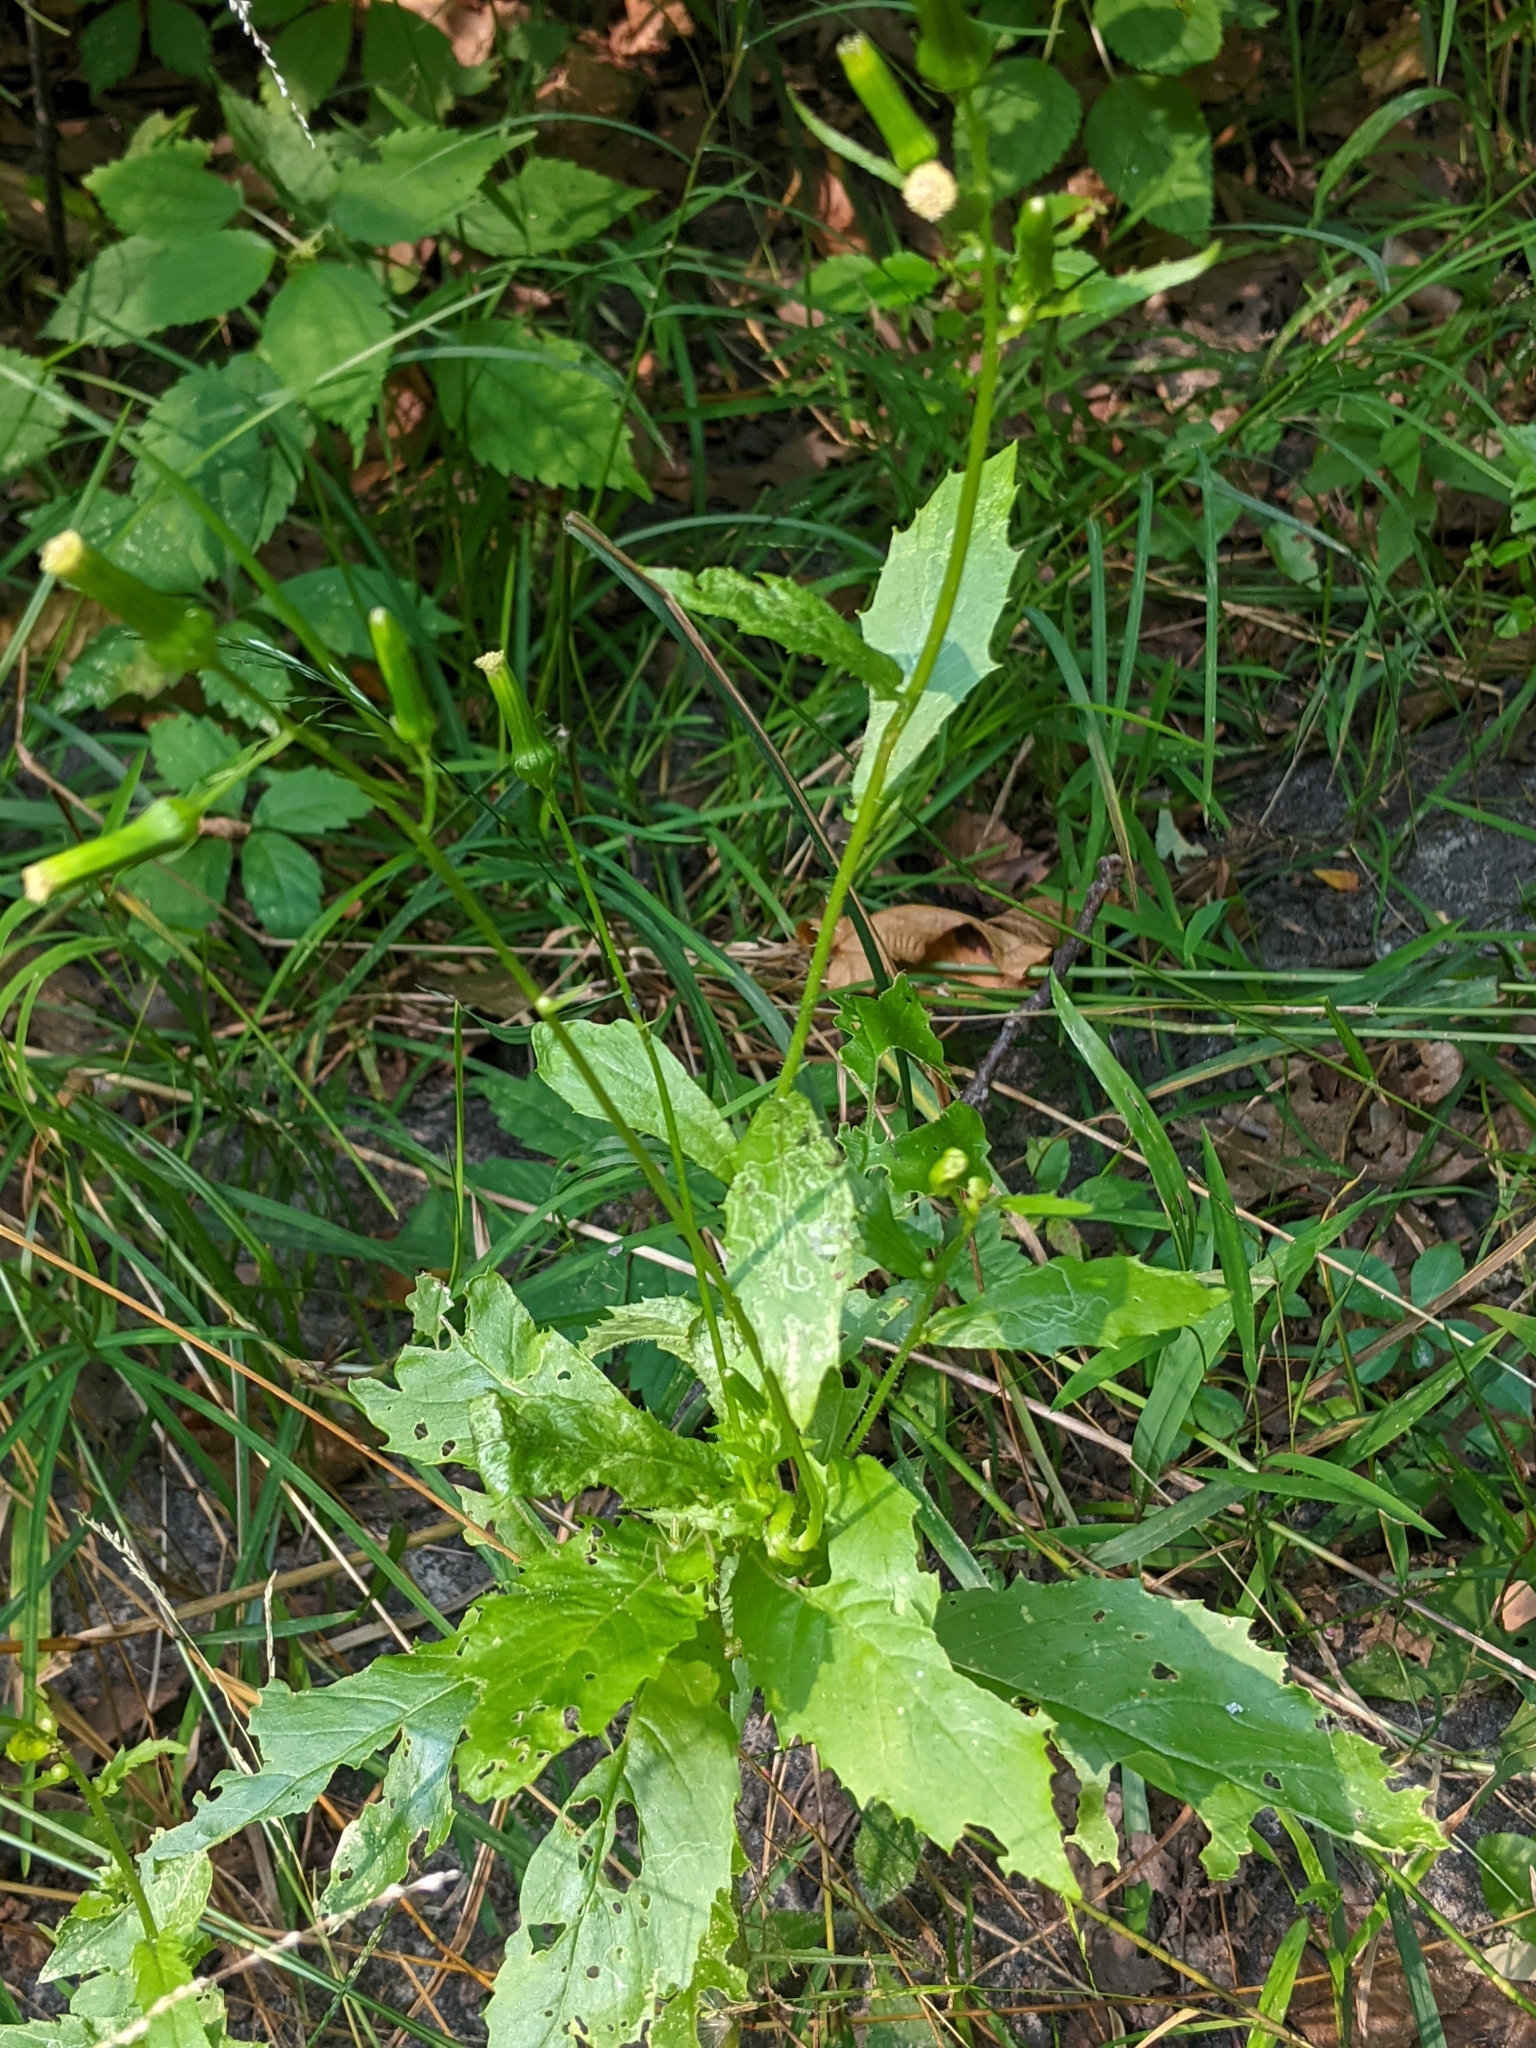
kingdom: Plantae
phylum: Tracheophyta
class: Magnoliopsida
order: Asterales
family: Asteraceae
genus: Erechtites
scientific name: Erechtites hieraciifolius
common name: American burnweed
